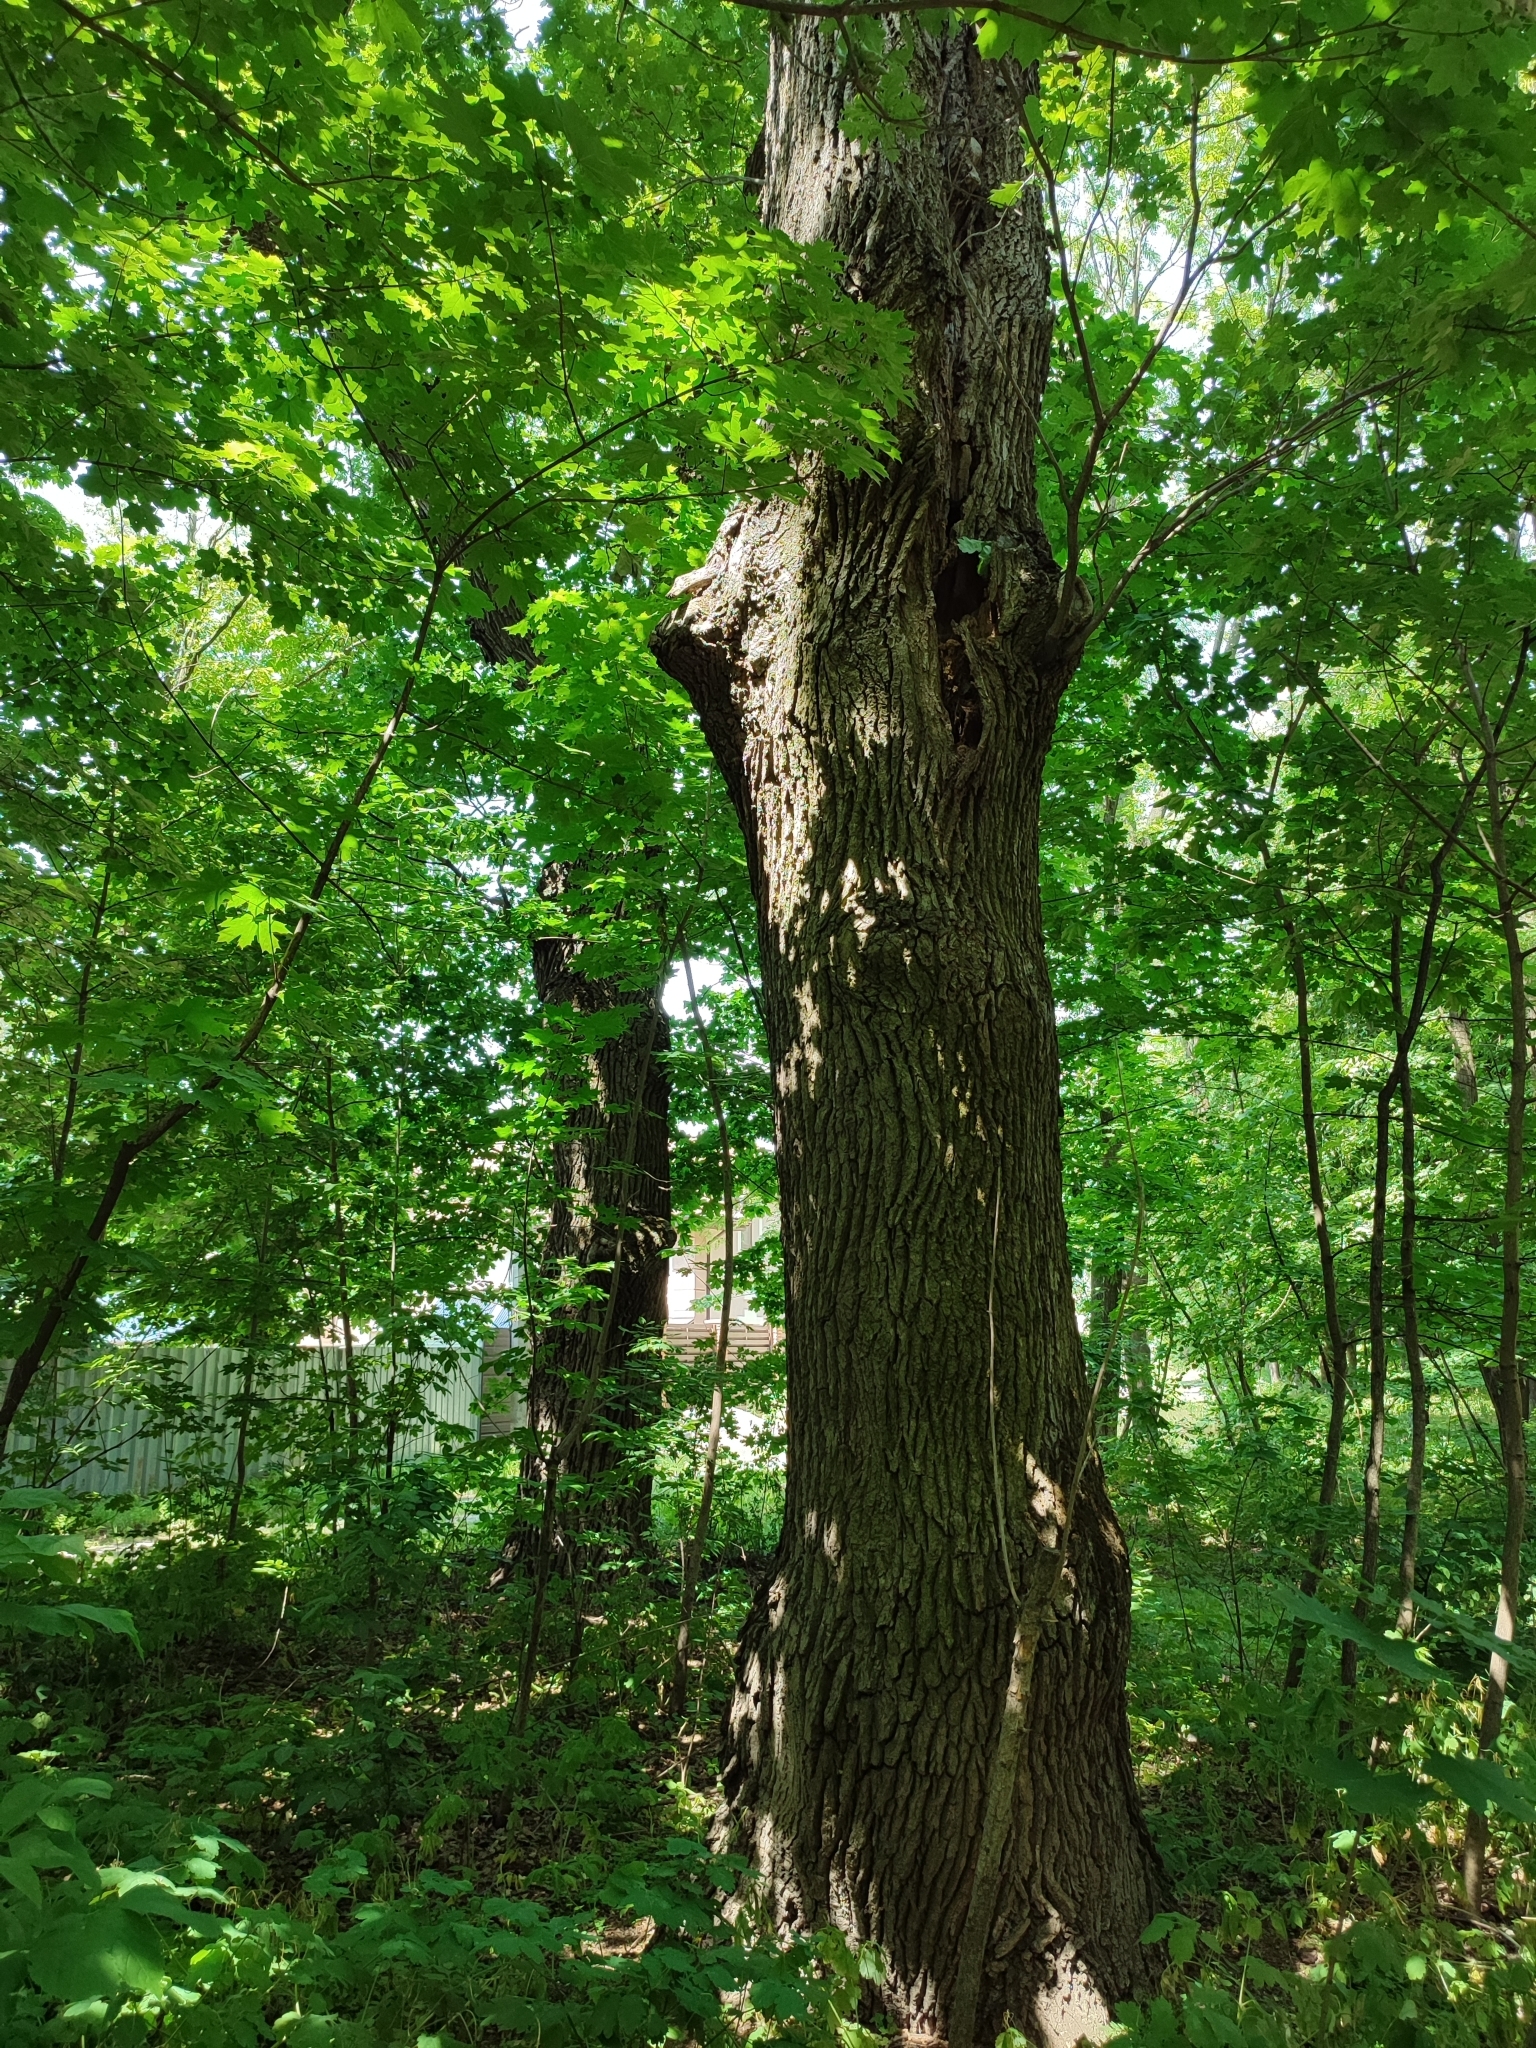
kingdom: Plantae
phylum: Tracheophyta
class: Magnoliopsida
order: Fagales
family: Fagaceae
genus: Quercus
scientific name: Quercus robur
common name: Pedunculate oak
